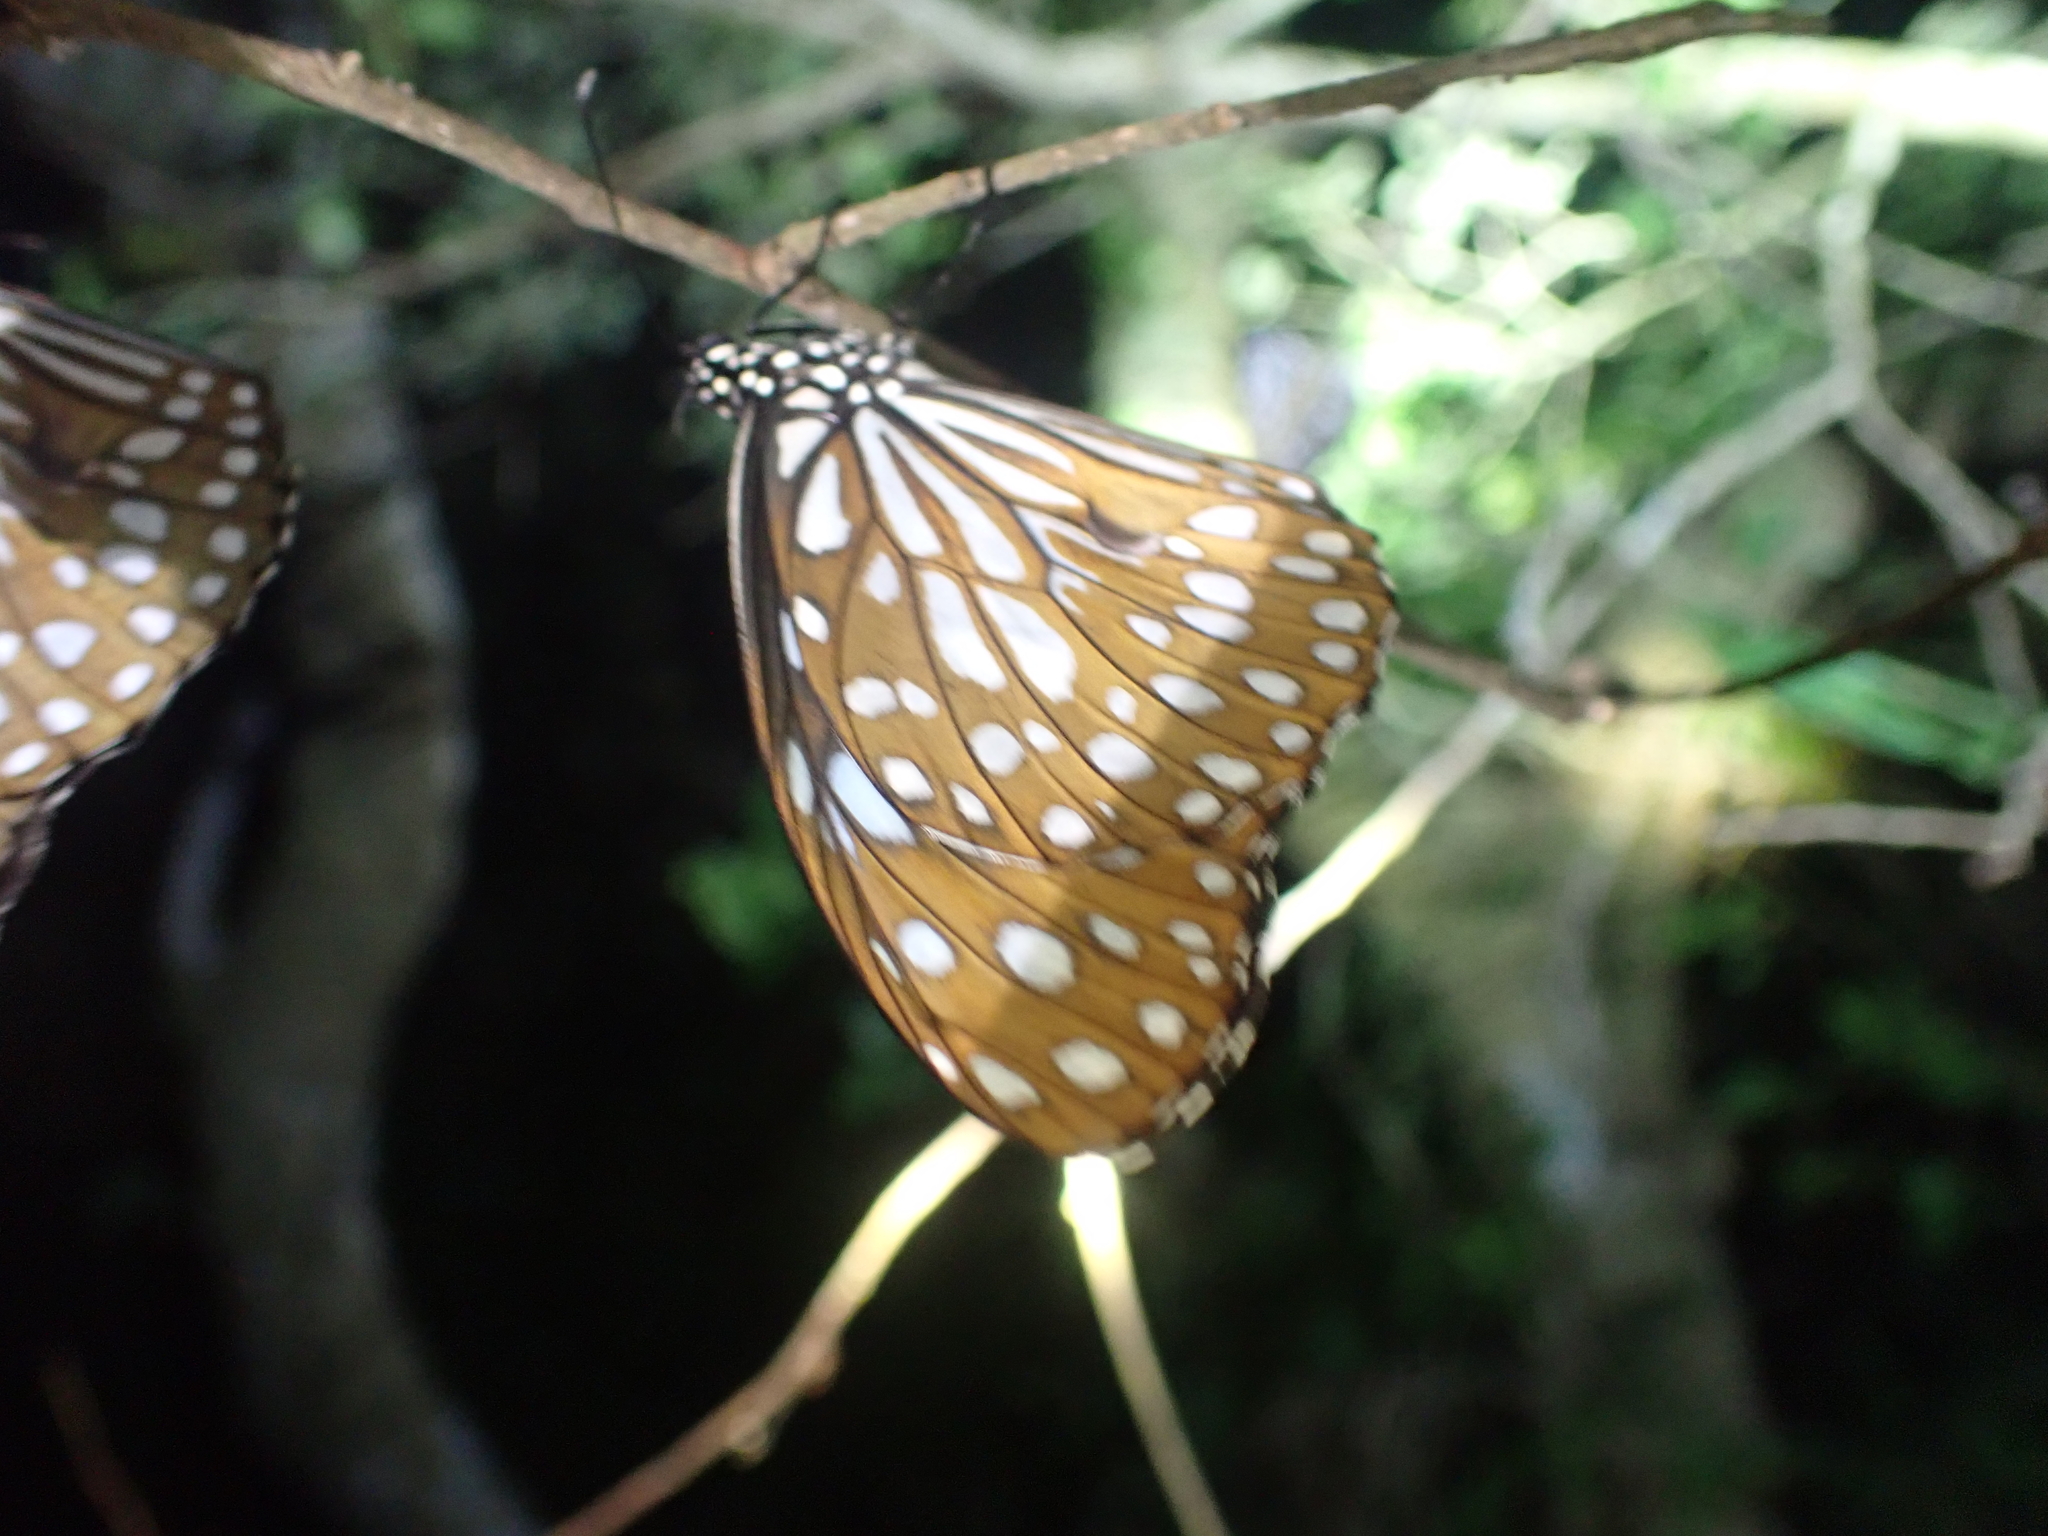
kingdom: Animalia
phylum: Arthropoda
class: Insecta
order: Lepidoptera
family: Nymphalidae
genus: Tirumala
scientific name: Tirumala limniace
